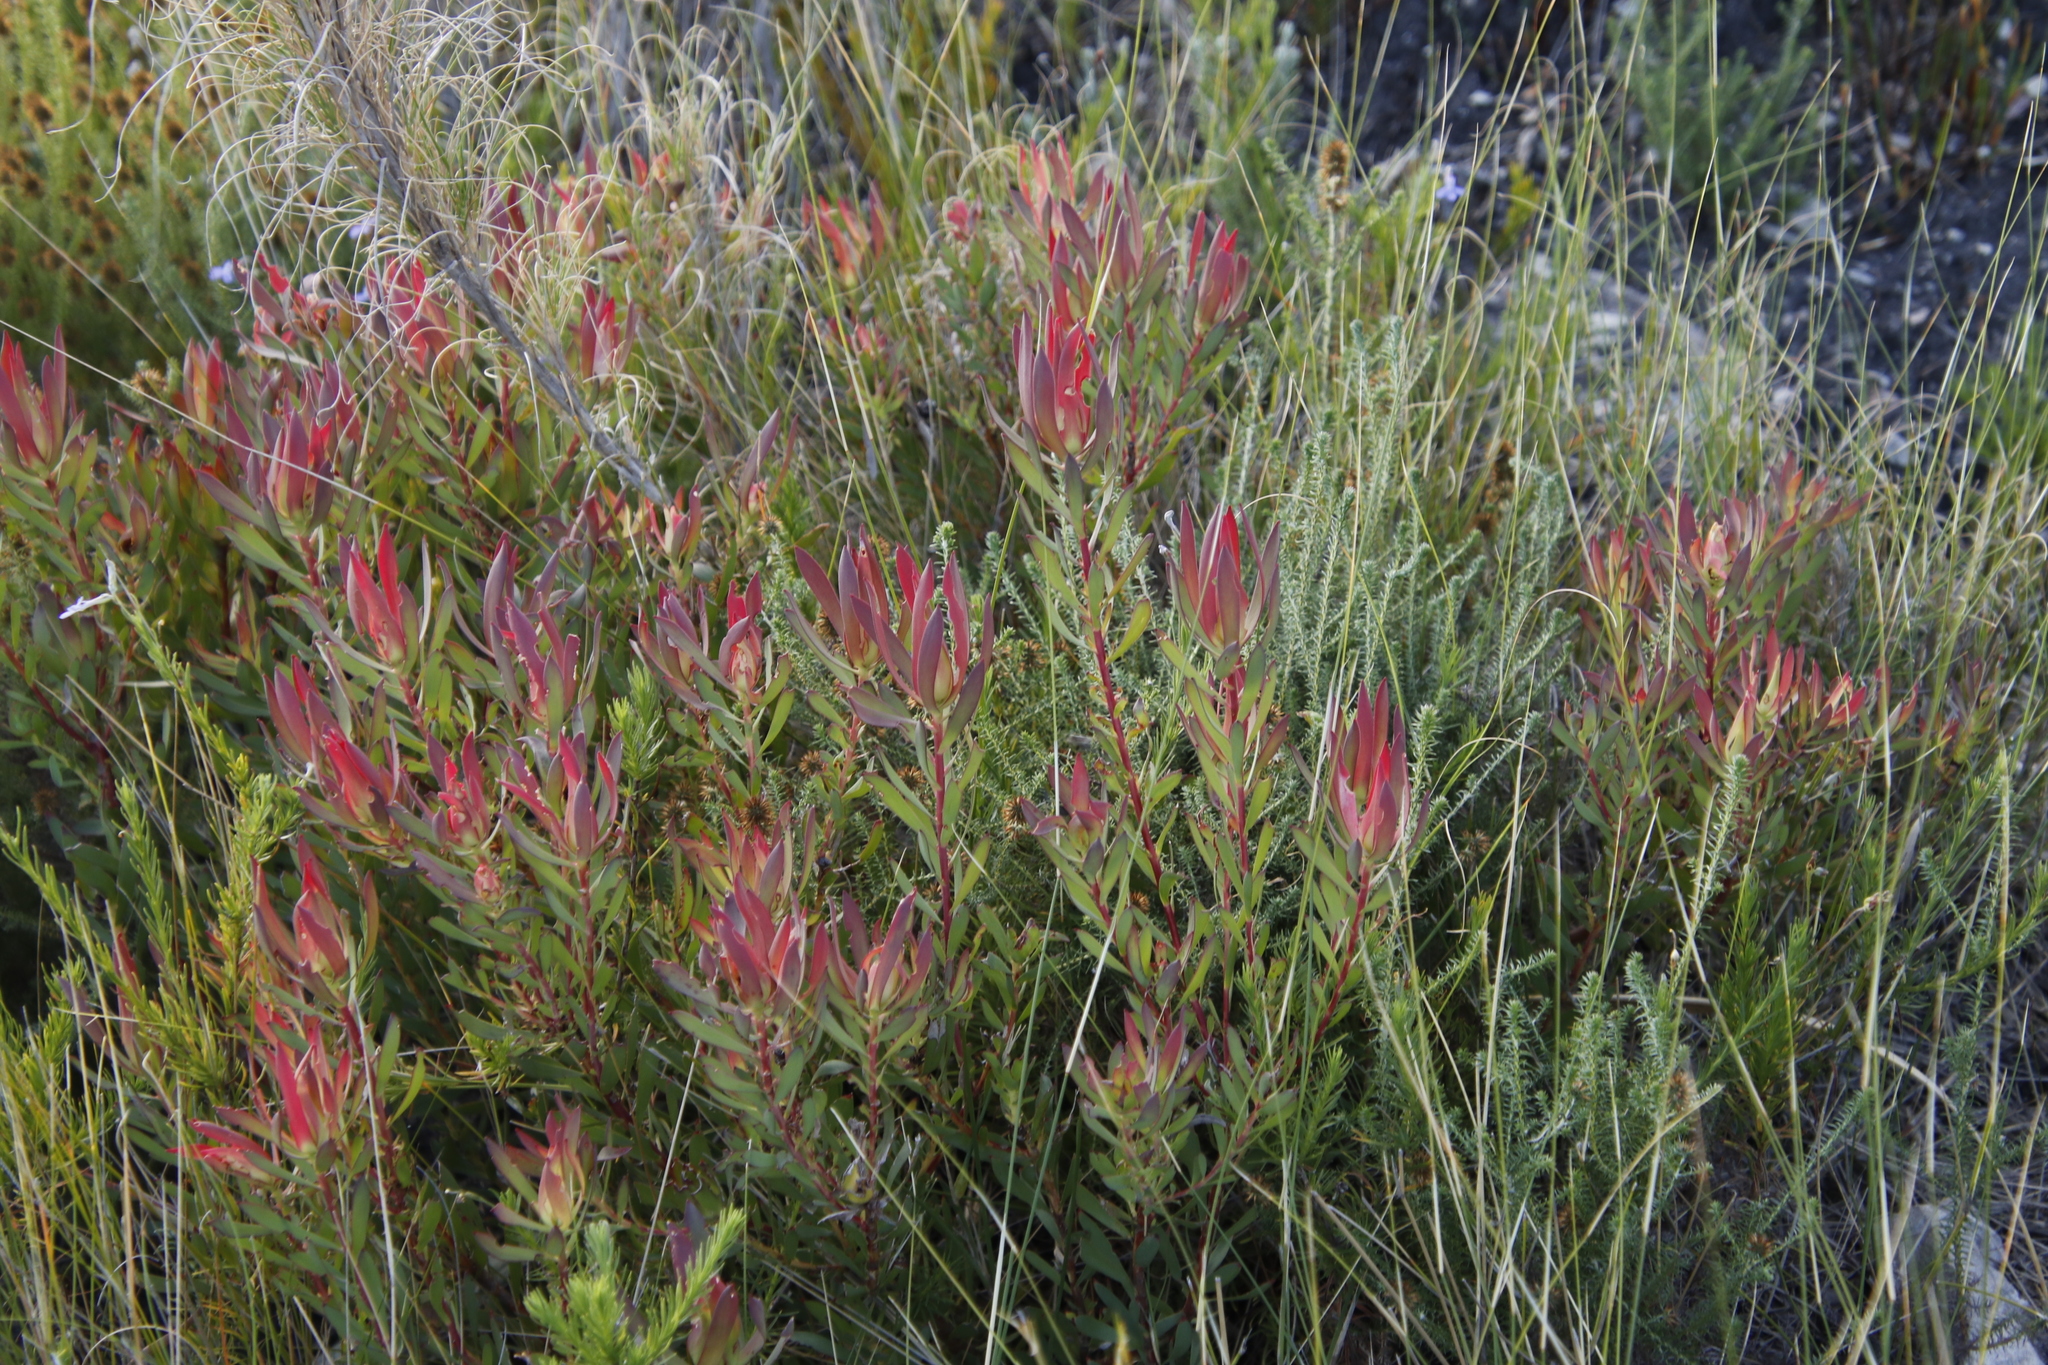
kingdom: Plantae
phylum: Tracheophyta
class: Magnoliopsida
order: Proteales
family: Proteaceae
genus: Leucadendron
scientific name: Leucadendron salignum
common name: Common sunshine conebush
